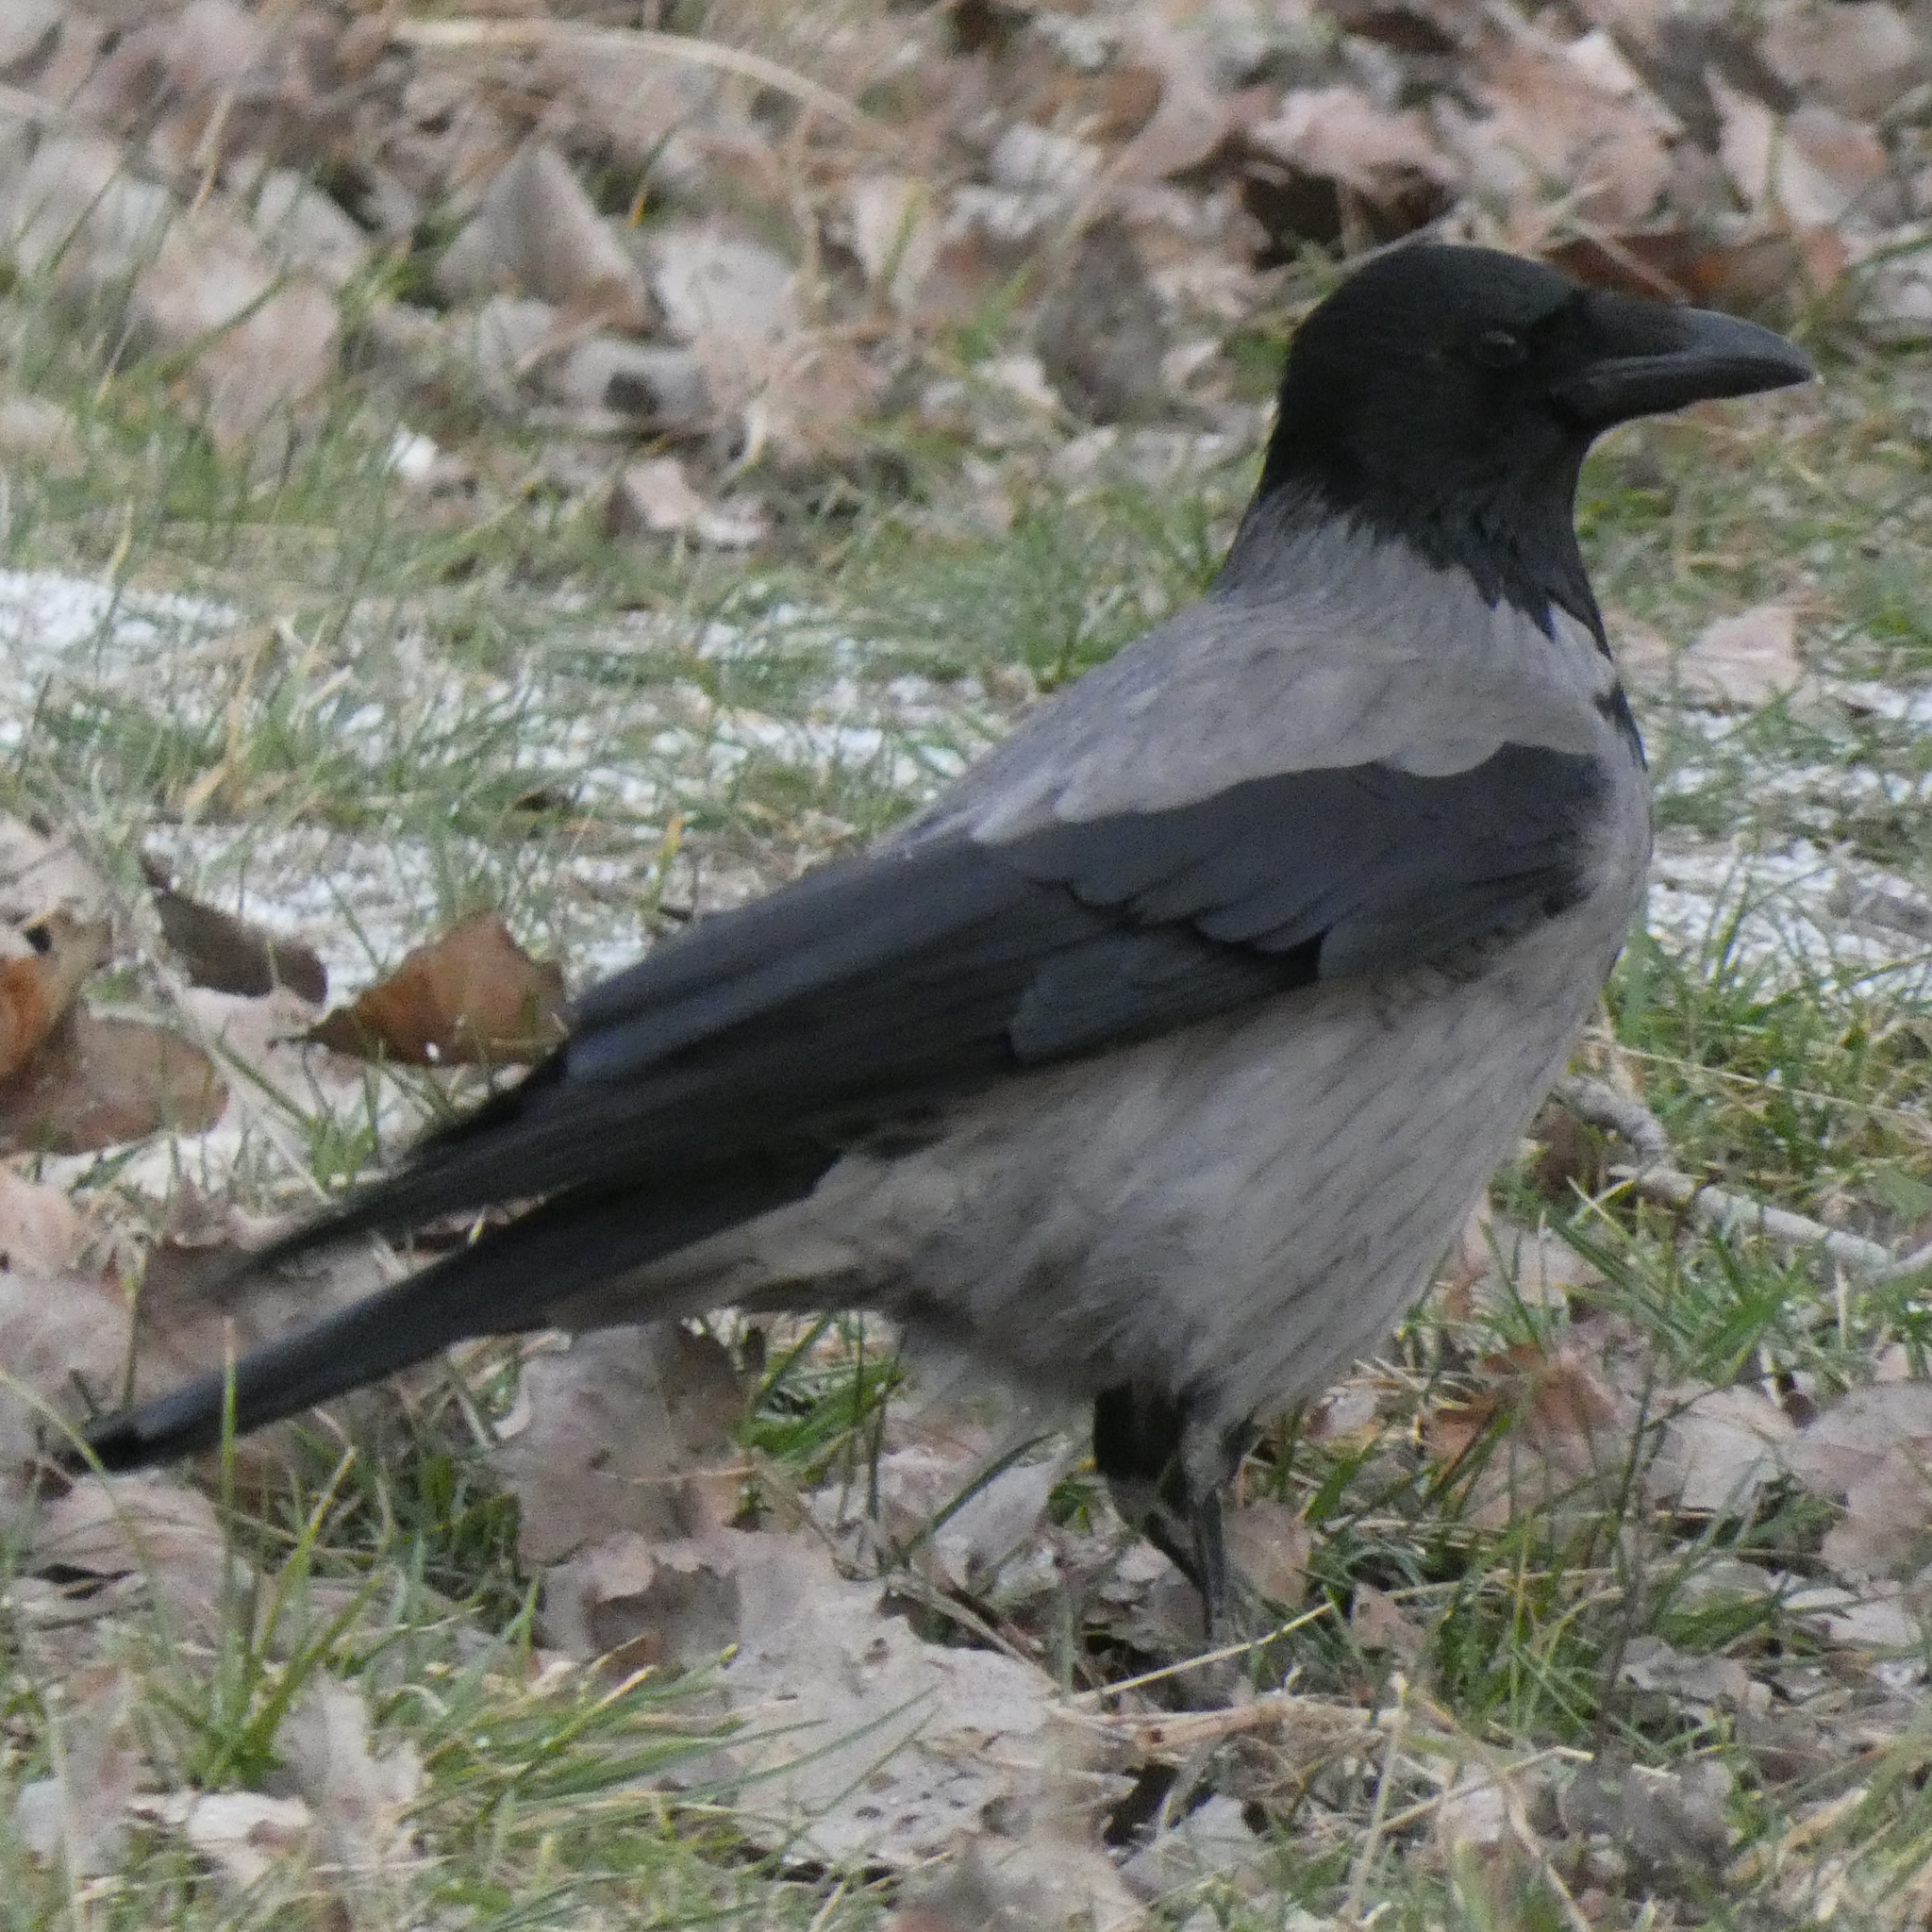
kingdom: Animalia
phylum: Chordata
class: Aves
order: Passeriformes
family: Corvidae
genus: Corvus
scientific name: Corvus cornix
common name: Hooded crow
